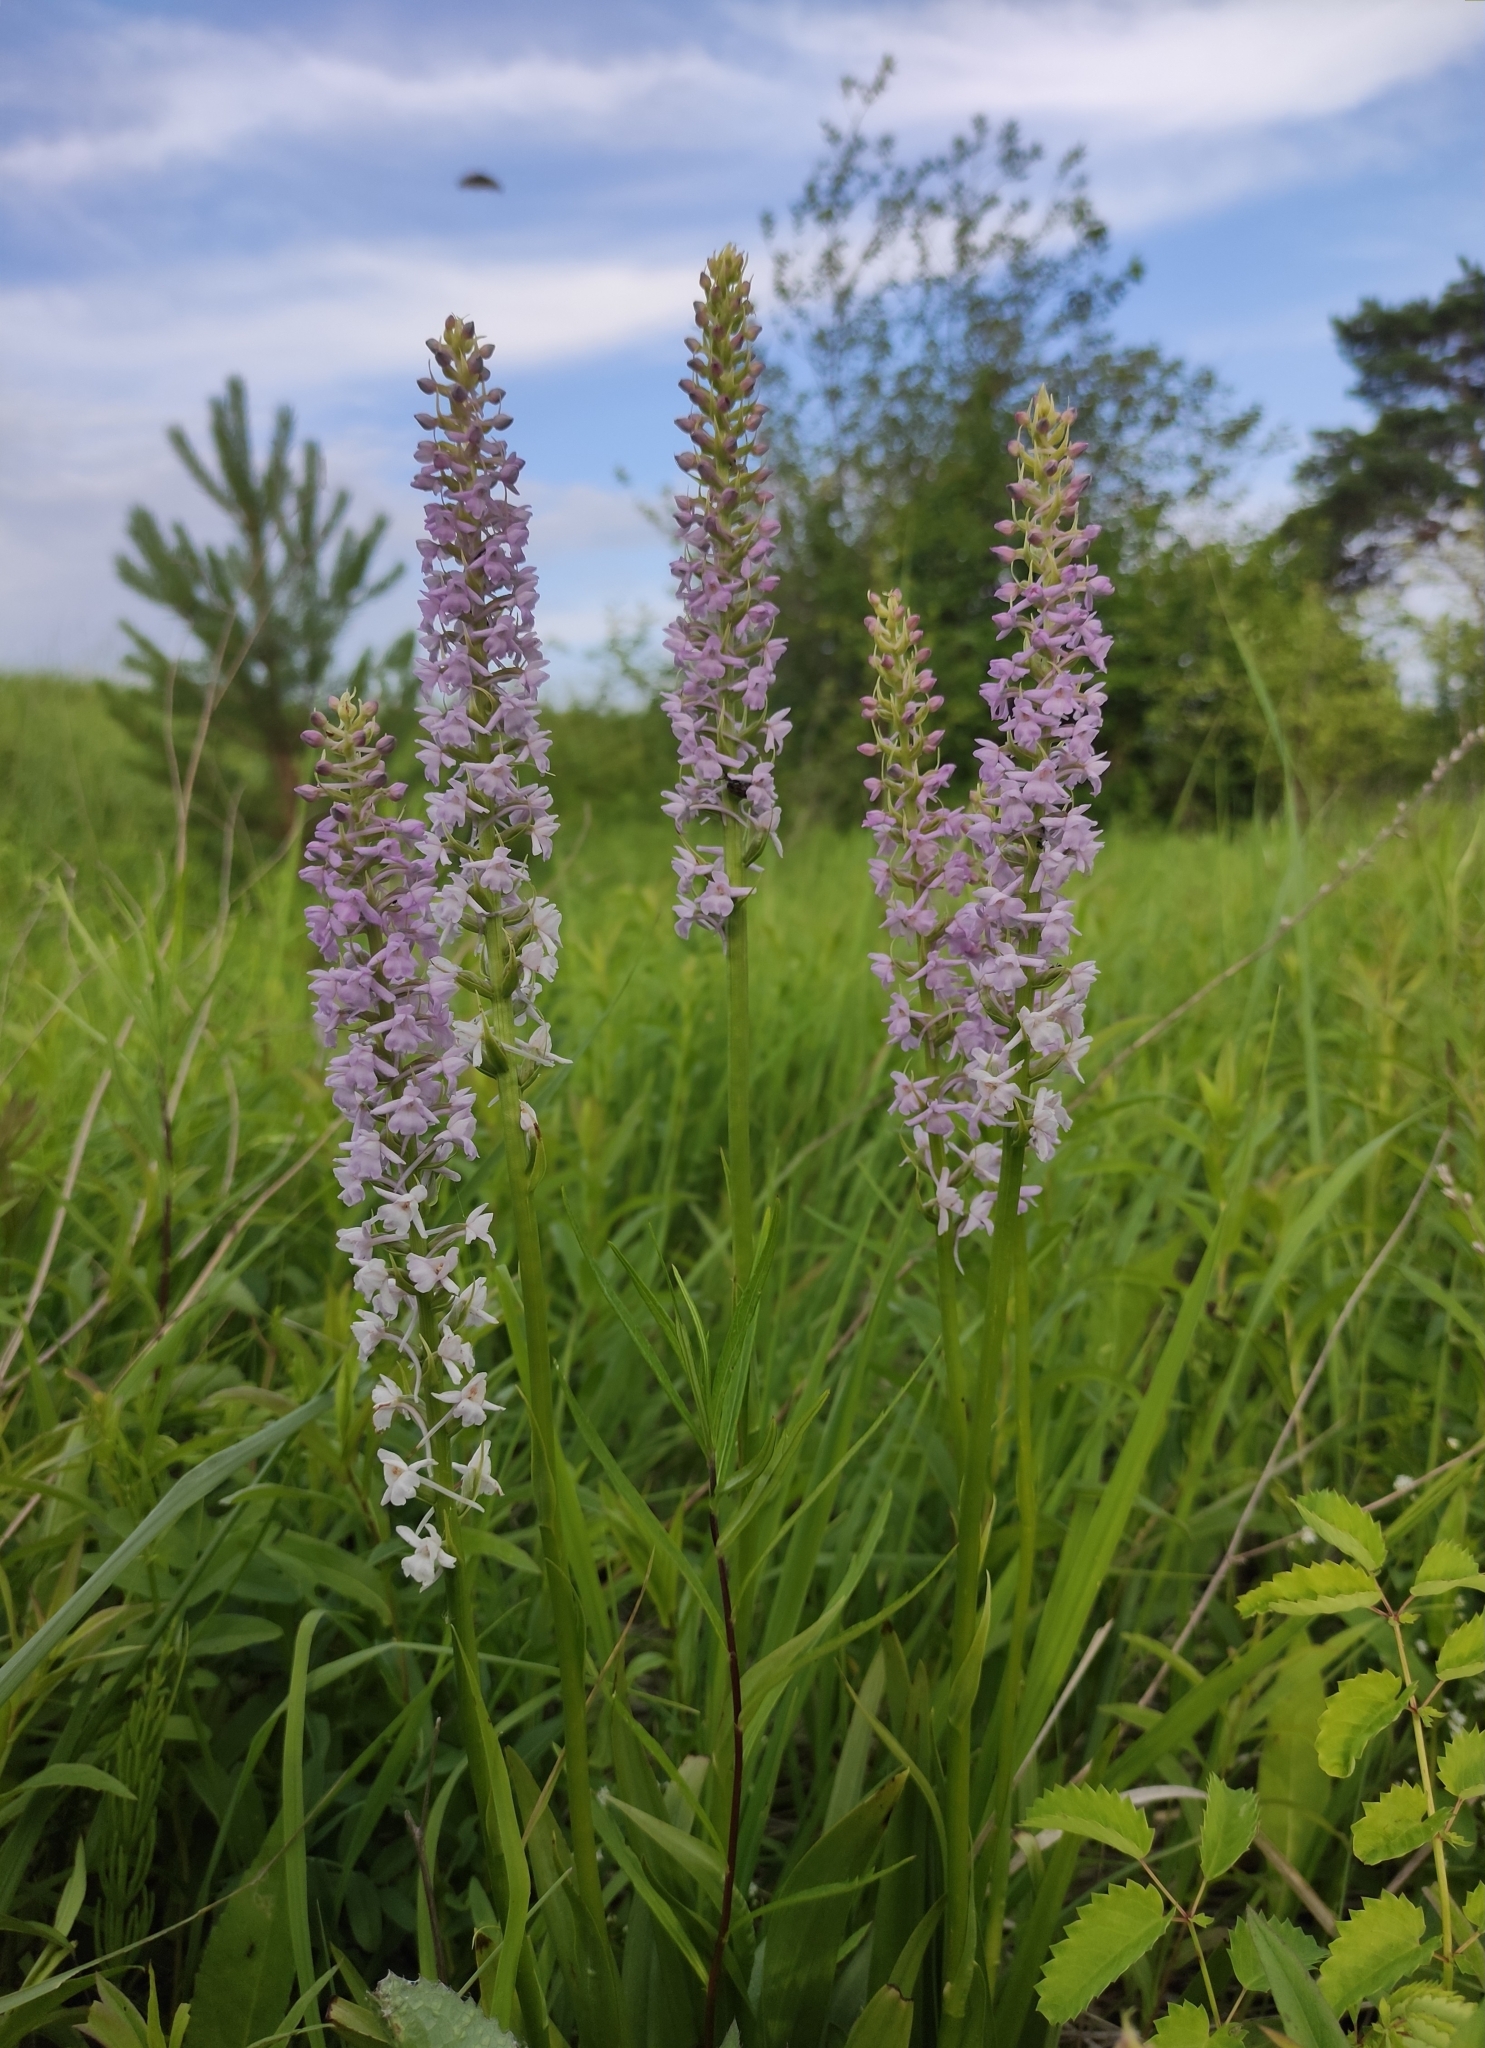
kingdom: Plantae
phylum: Tracheophyta
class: Liliopsida
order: Asparagales
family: Orchidaceae
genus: Gymnadenia
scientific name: Gymnadenia conopsea
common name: Fragrant orchid
